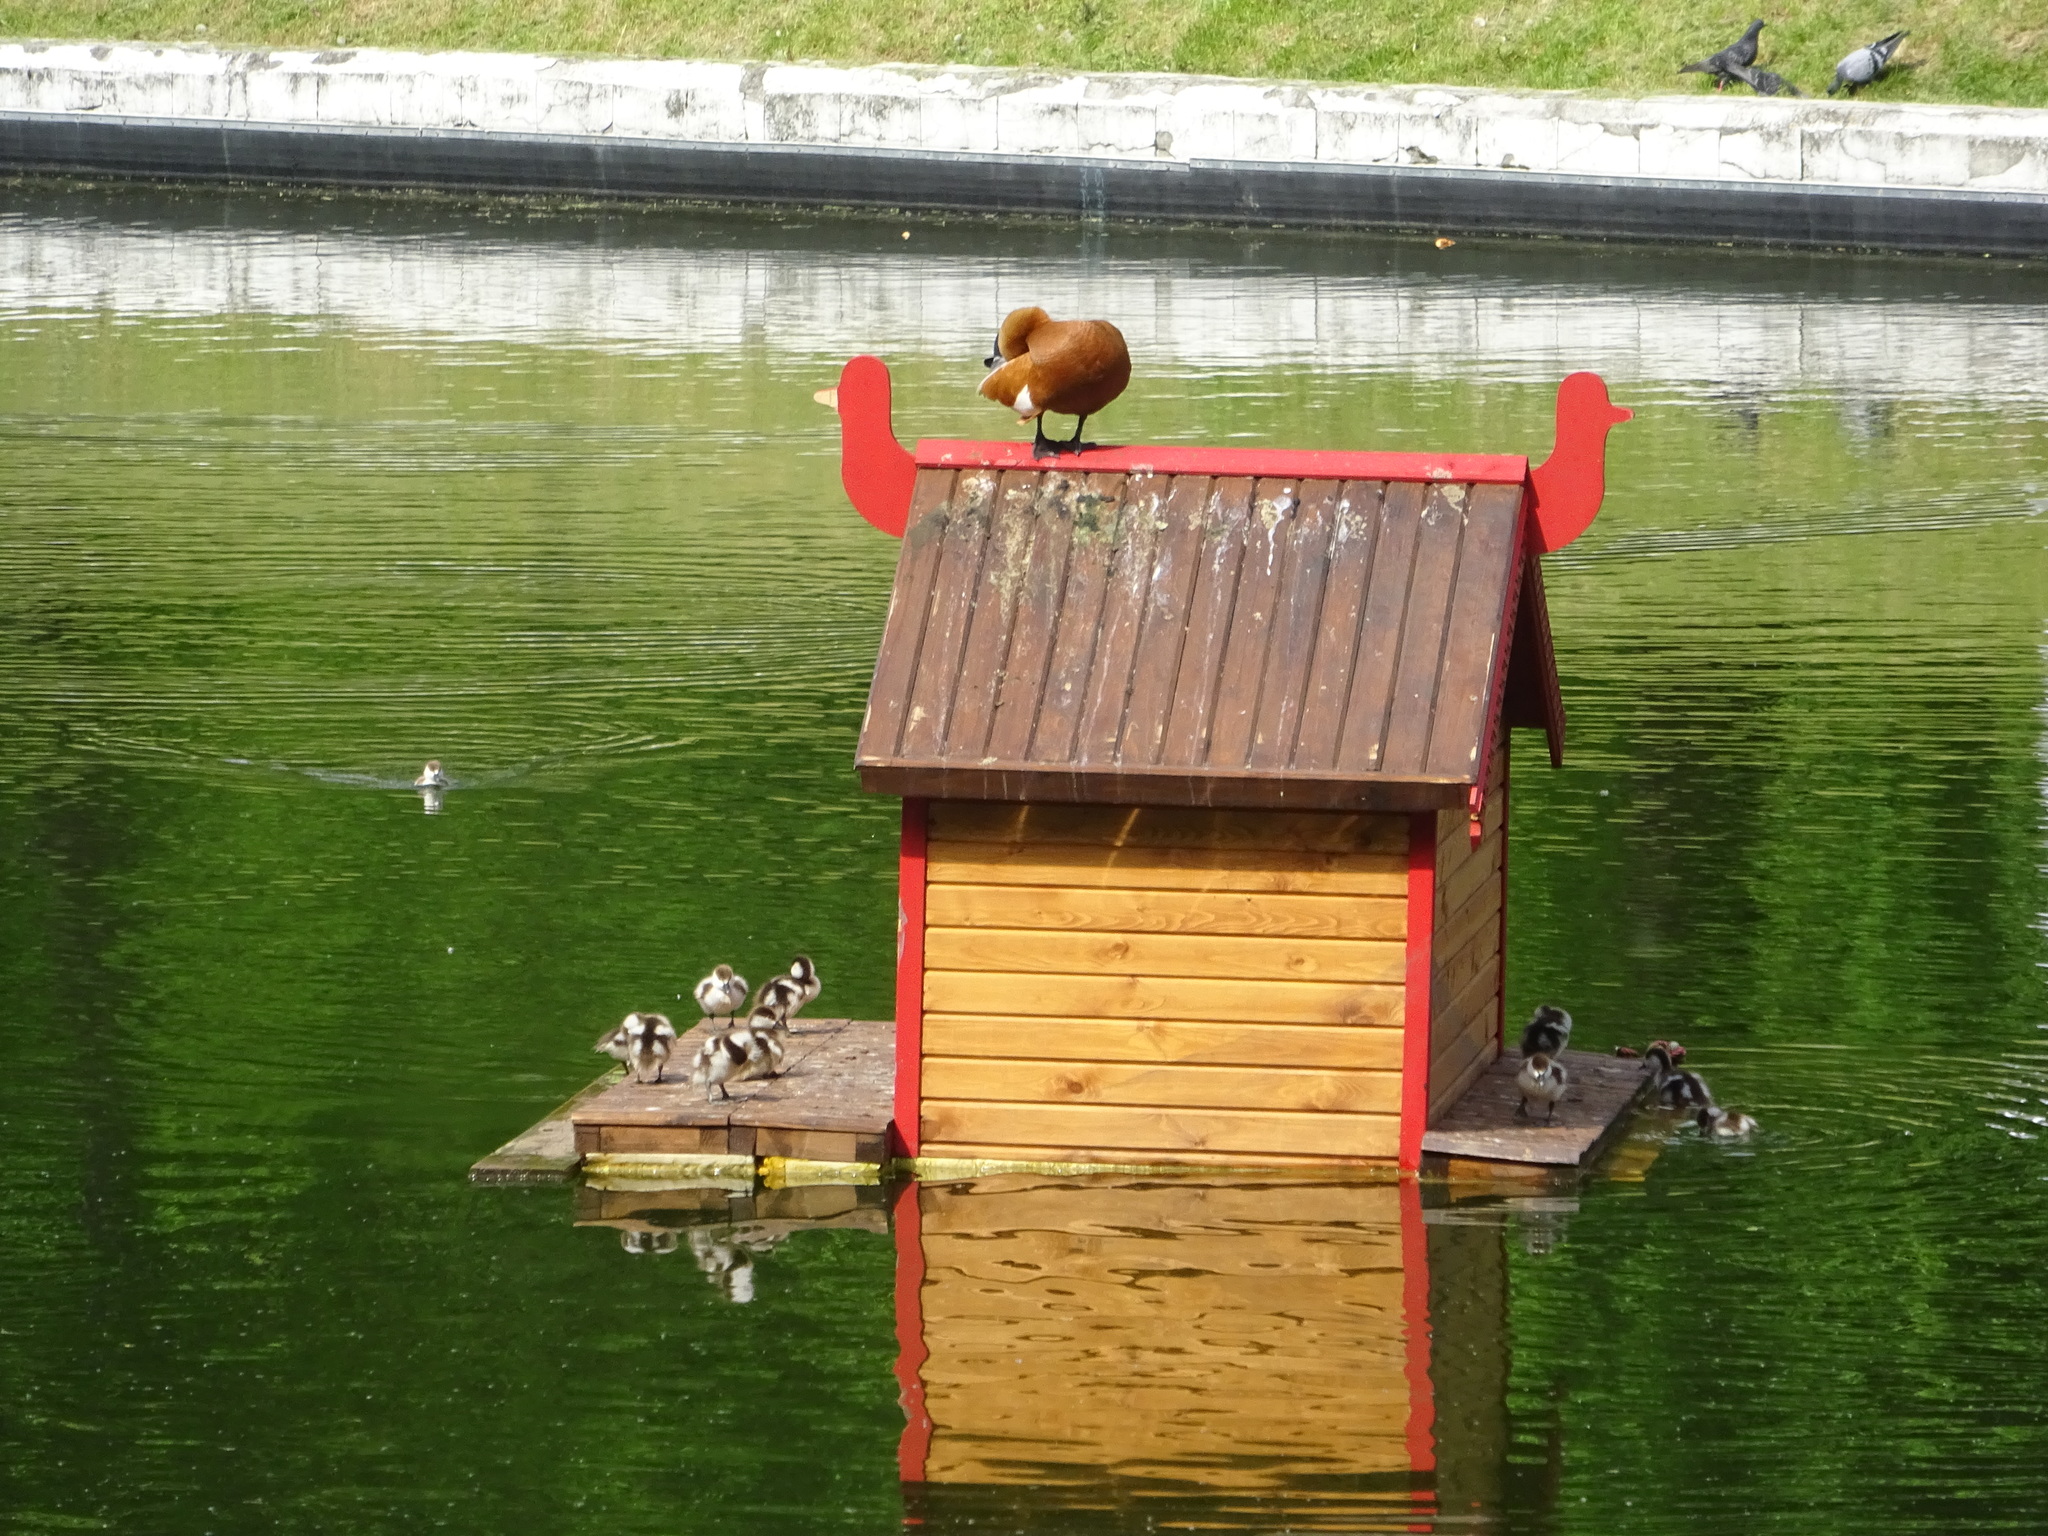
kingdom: Animalia
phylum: Chordata
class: Aves
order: Anseriformes
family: Anatidae
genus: Tadorna
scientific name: Tadorna ferruginea
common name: Ruddy shelduck
